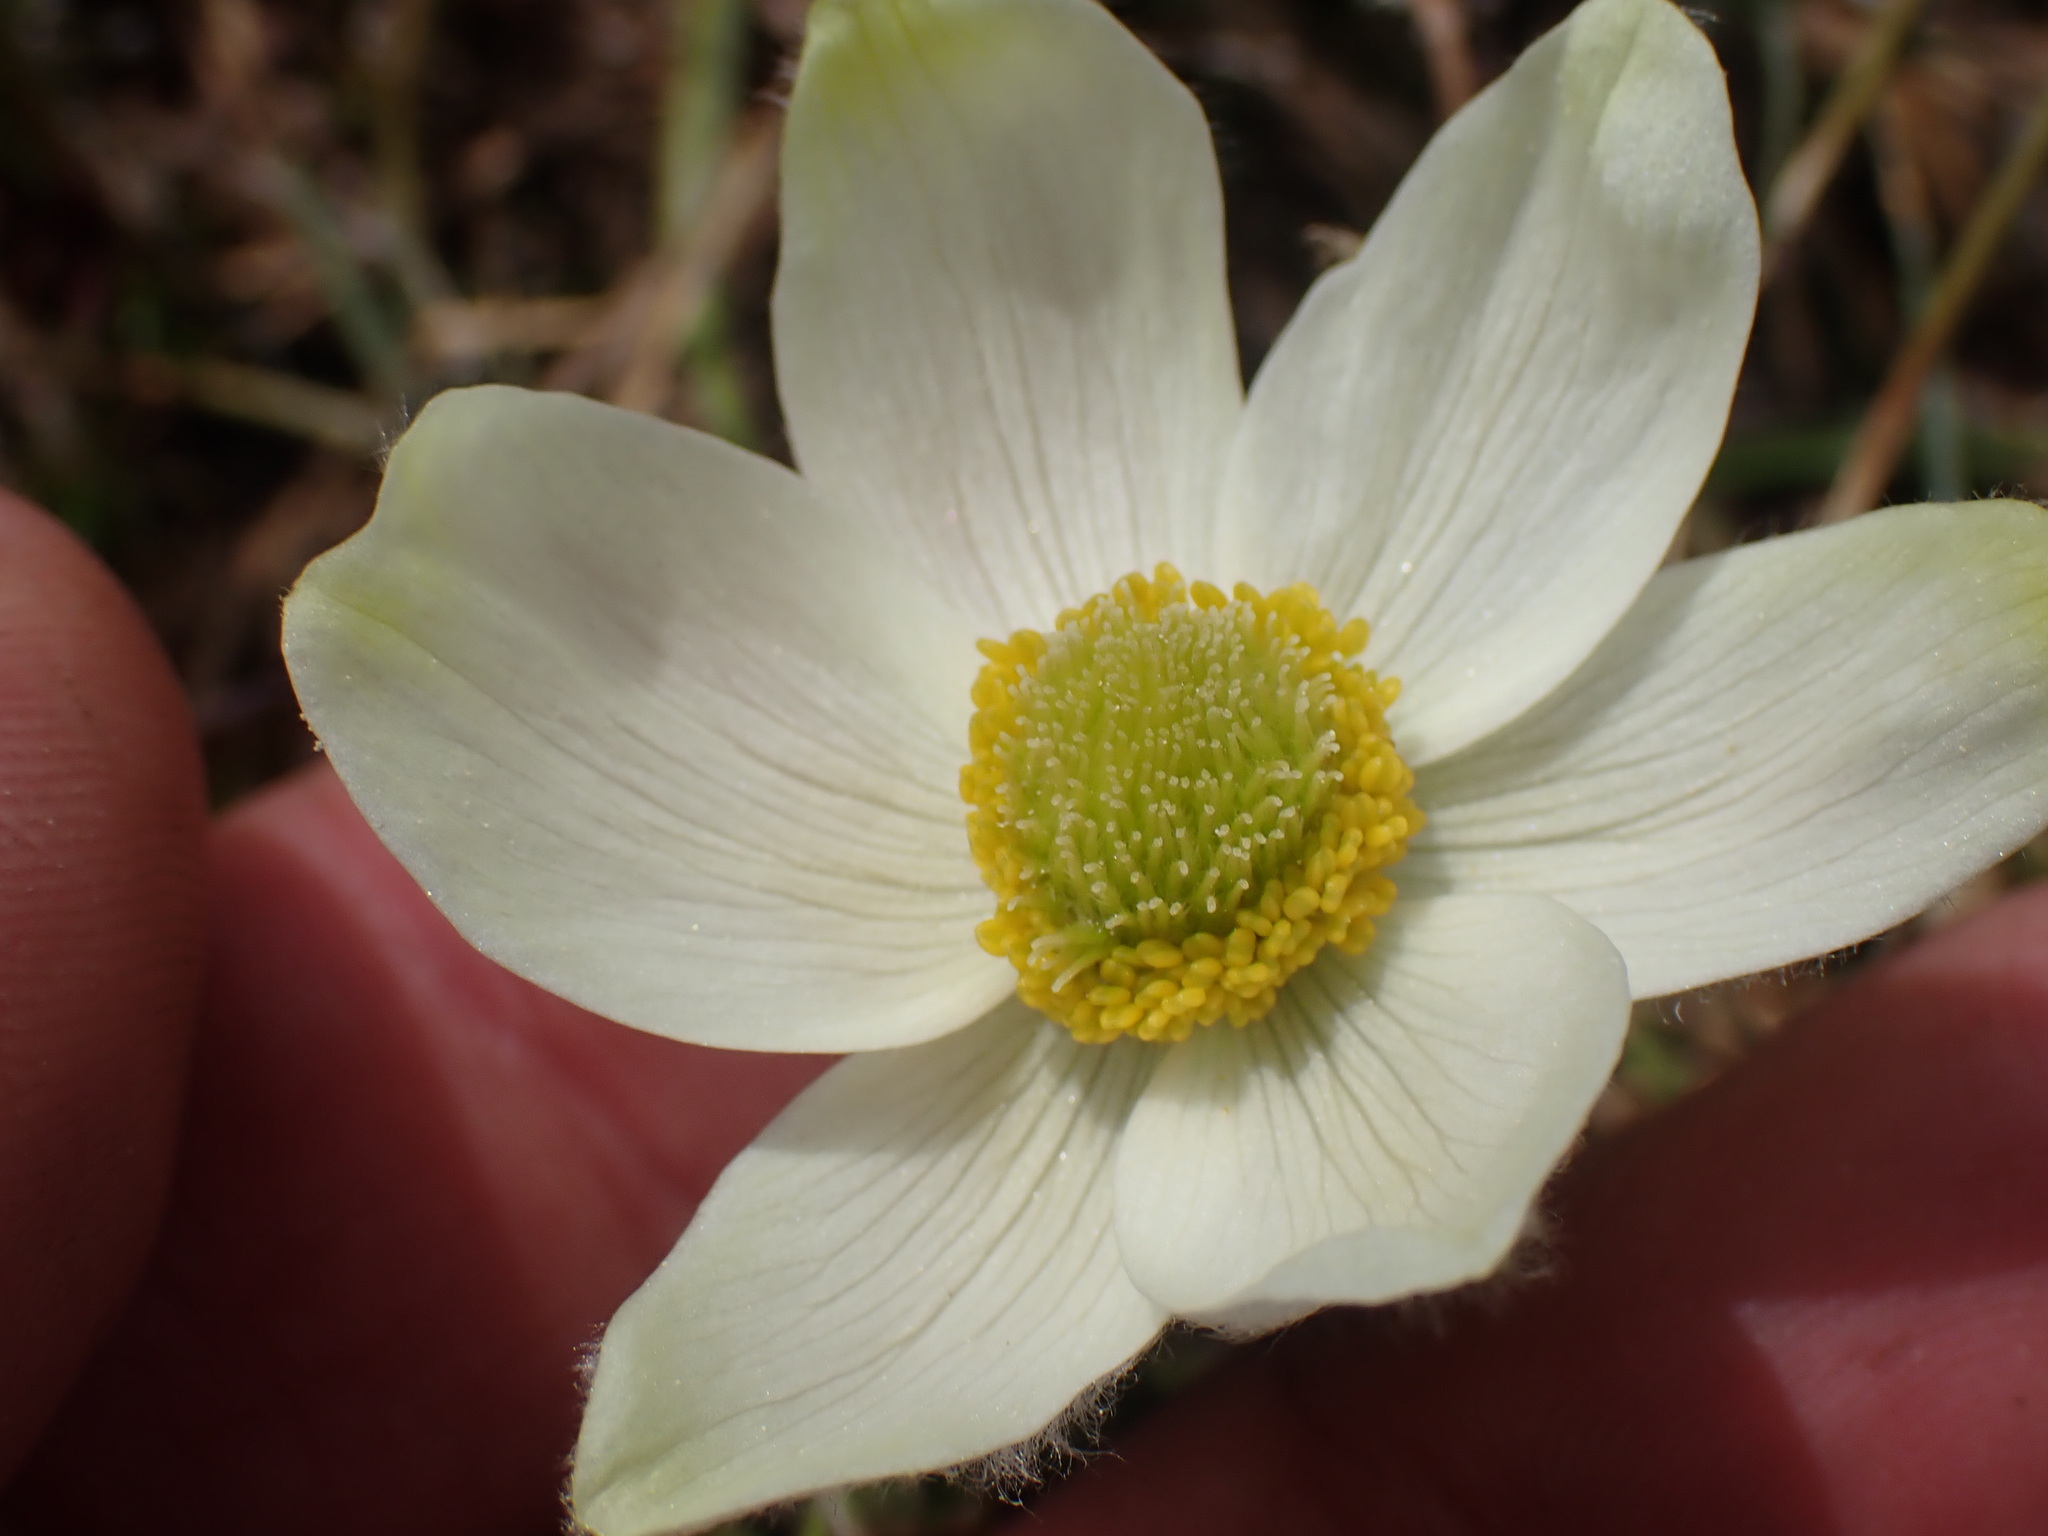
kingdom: Plantae
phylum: Tracheophyta
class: Magnoliopsida
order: Ranunculales
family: Ranunculaceae
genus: Pulsatilla
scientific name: Pulsatilla occidentalis
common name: Mountain pasqueflower
